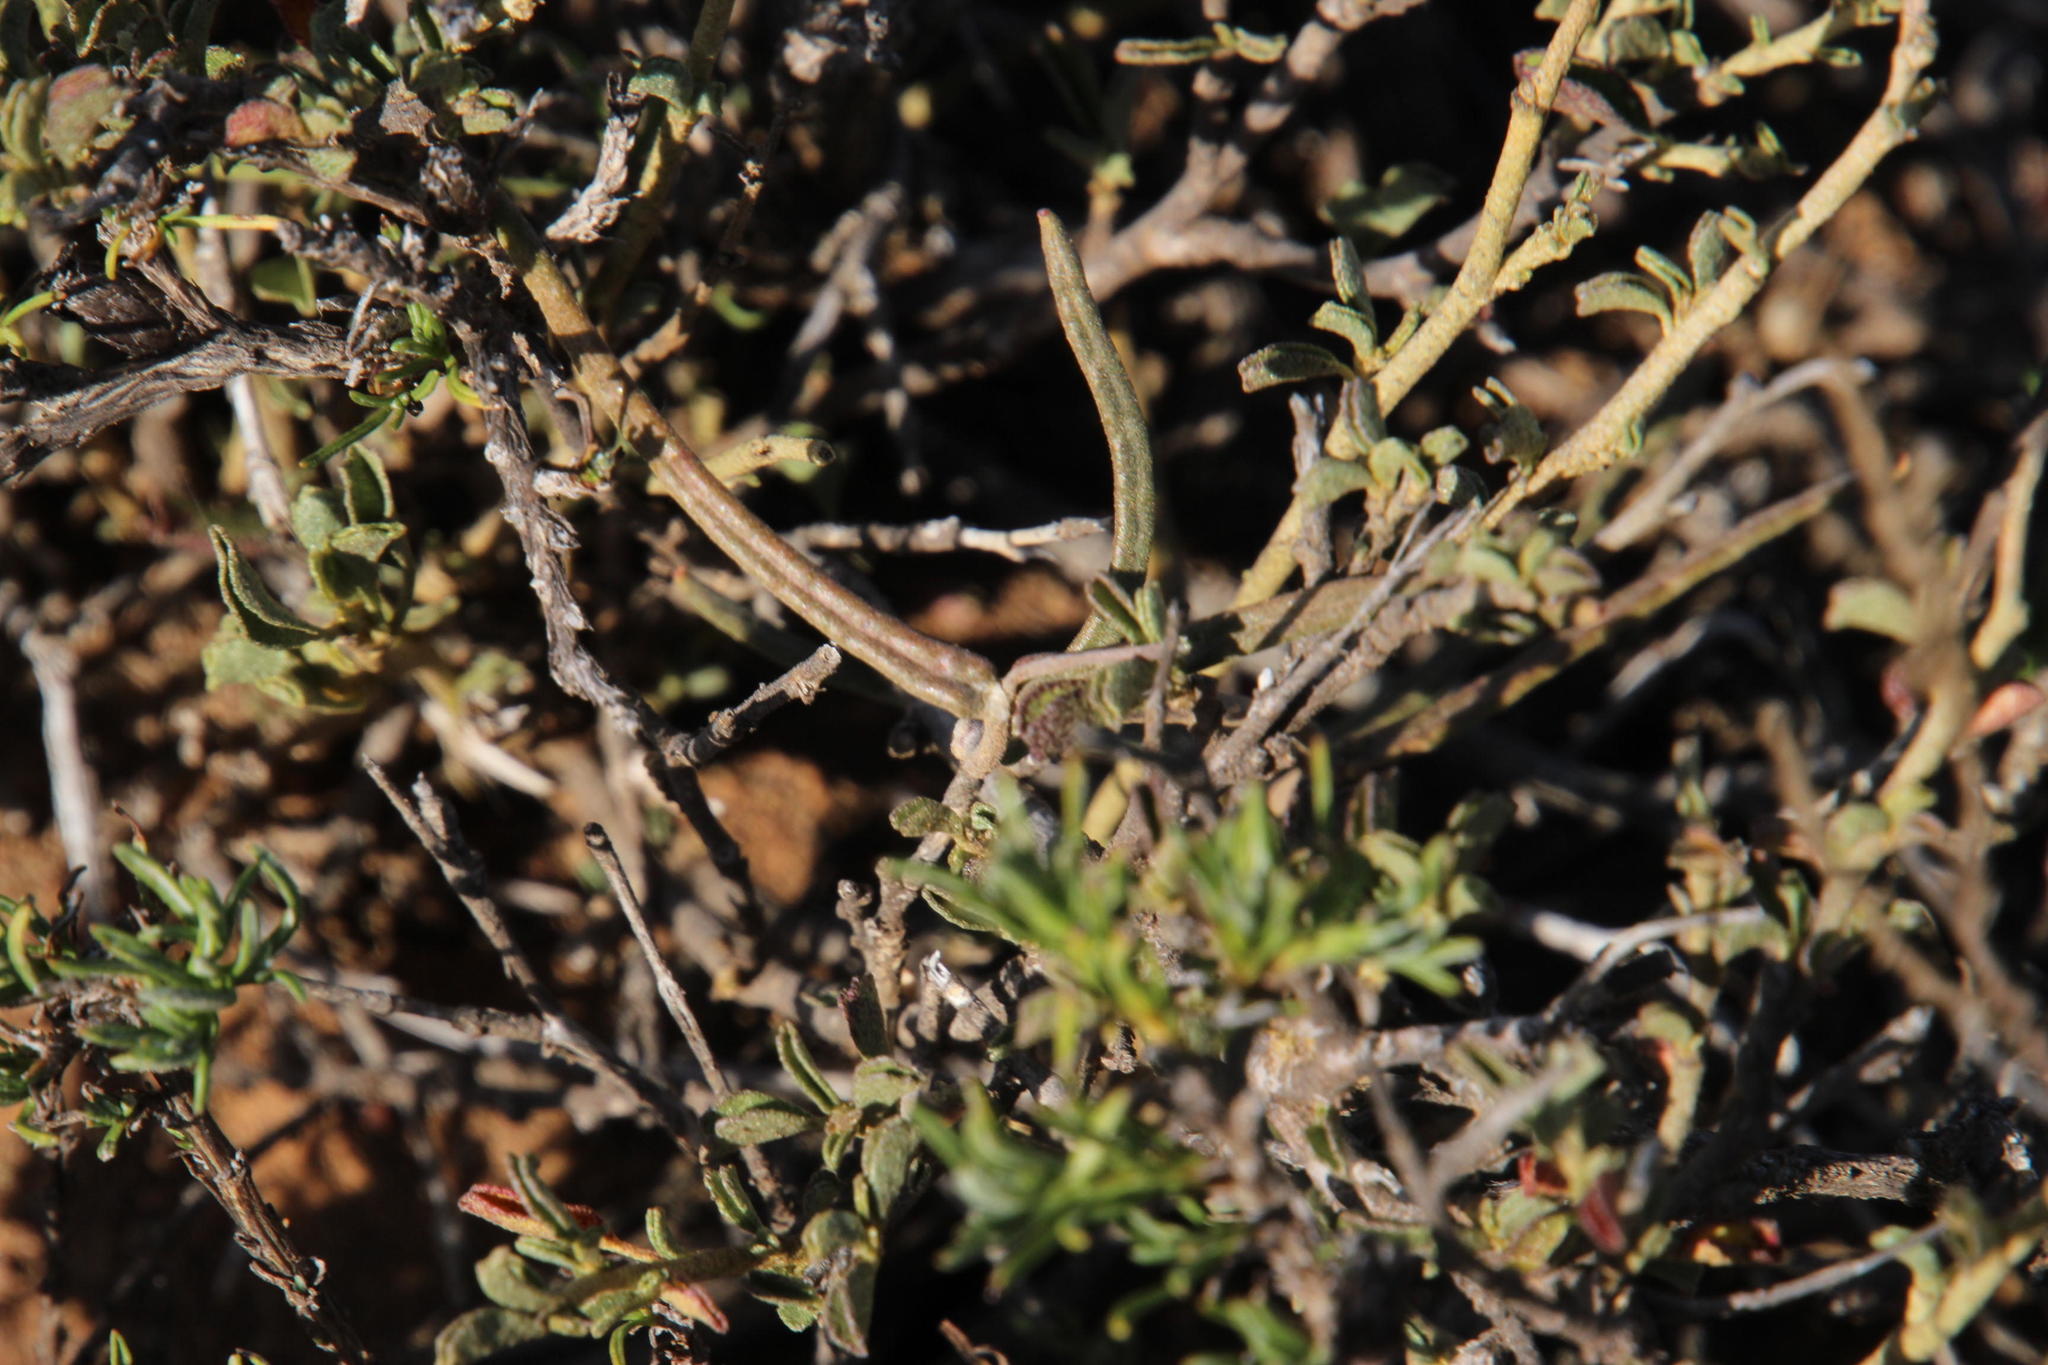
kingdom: Plantae
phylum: Tracheophyta
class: Magnoliopsida
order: Gentianales
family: Apocynaceae
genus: Fockea
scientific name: Fockea comaru
